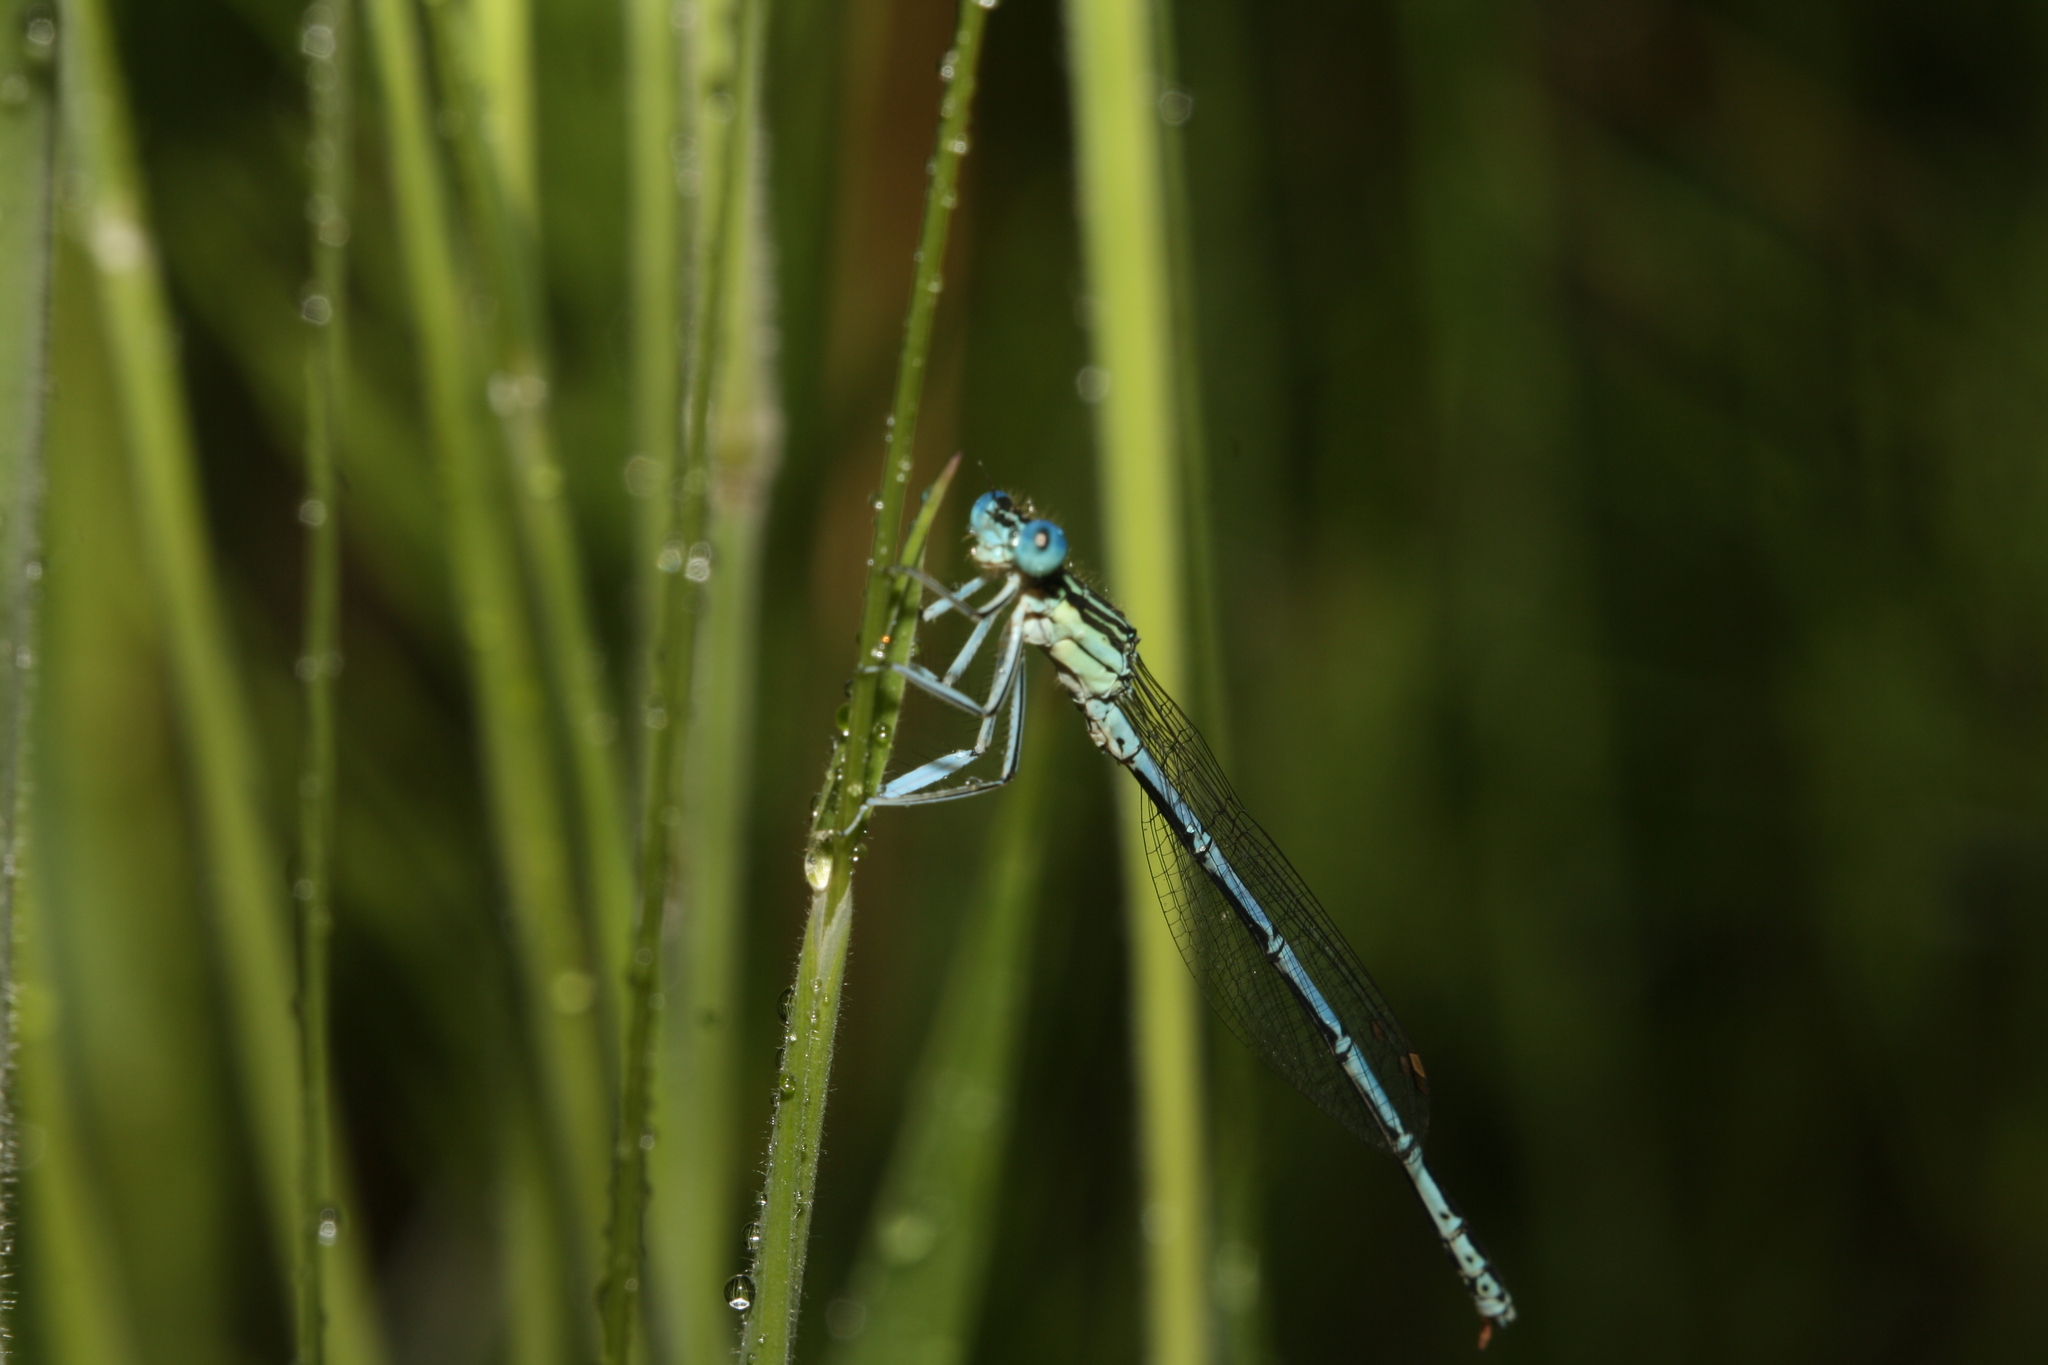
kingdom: Animalia
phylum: Arthropoda
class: Insecta
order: Odonata
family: Platycnemididae
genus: Platycnemis
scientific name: Platycnemis pennipes
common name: White-legged damselfly
